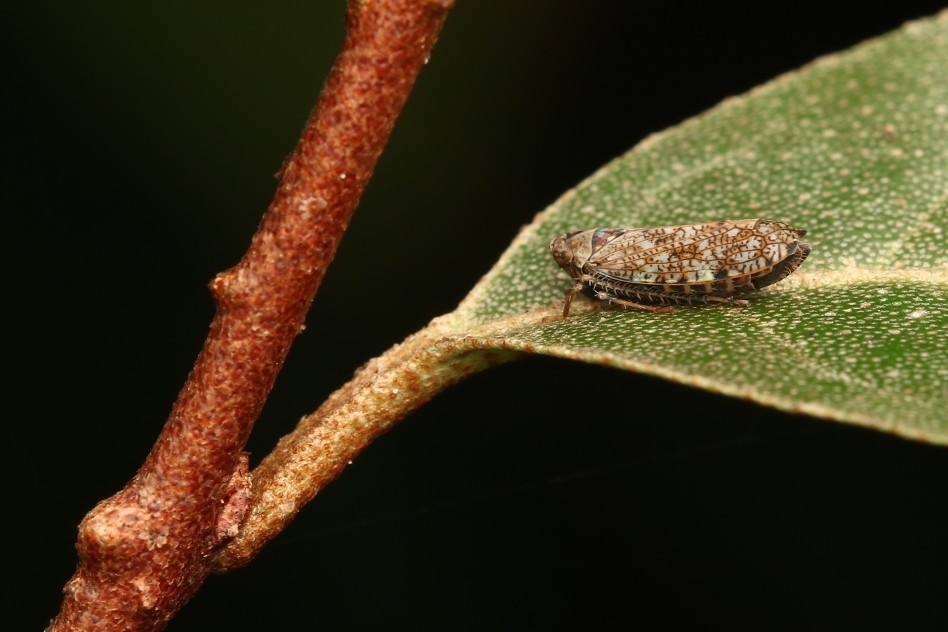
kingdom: Animalia
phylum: Arthropoda
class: Insecta
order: Hemiptera
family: Cicadellidae
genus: Orientus
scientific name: Orientus ishidae
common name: Japanese leafhopper
